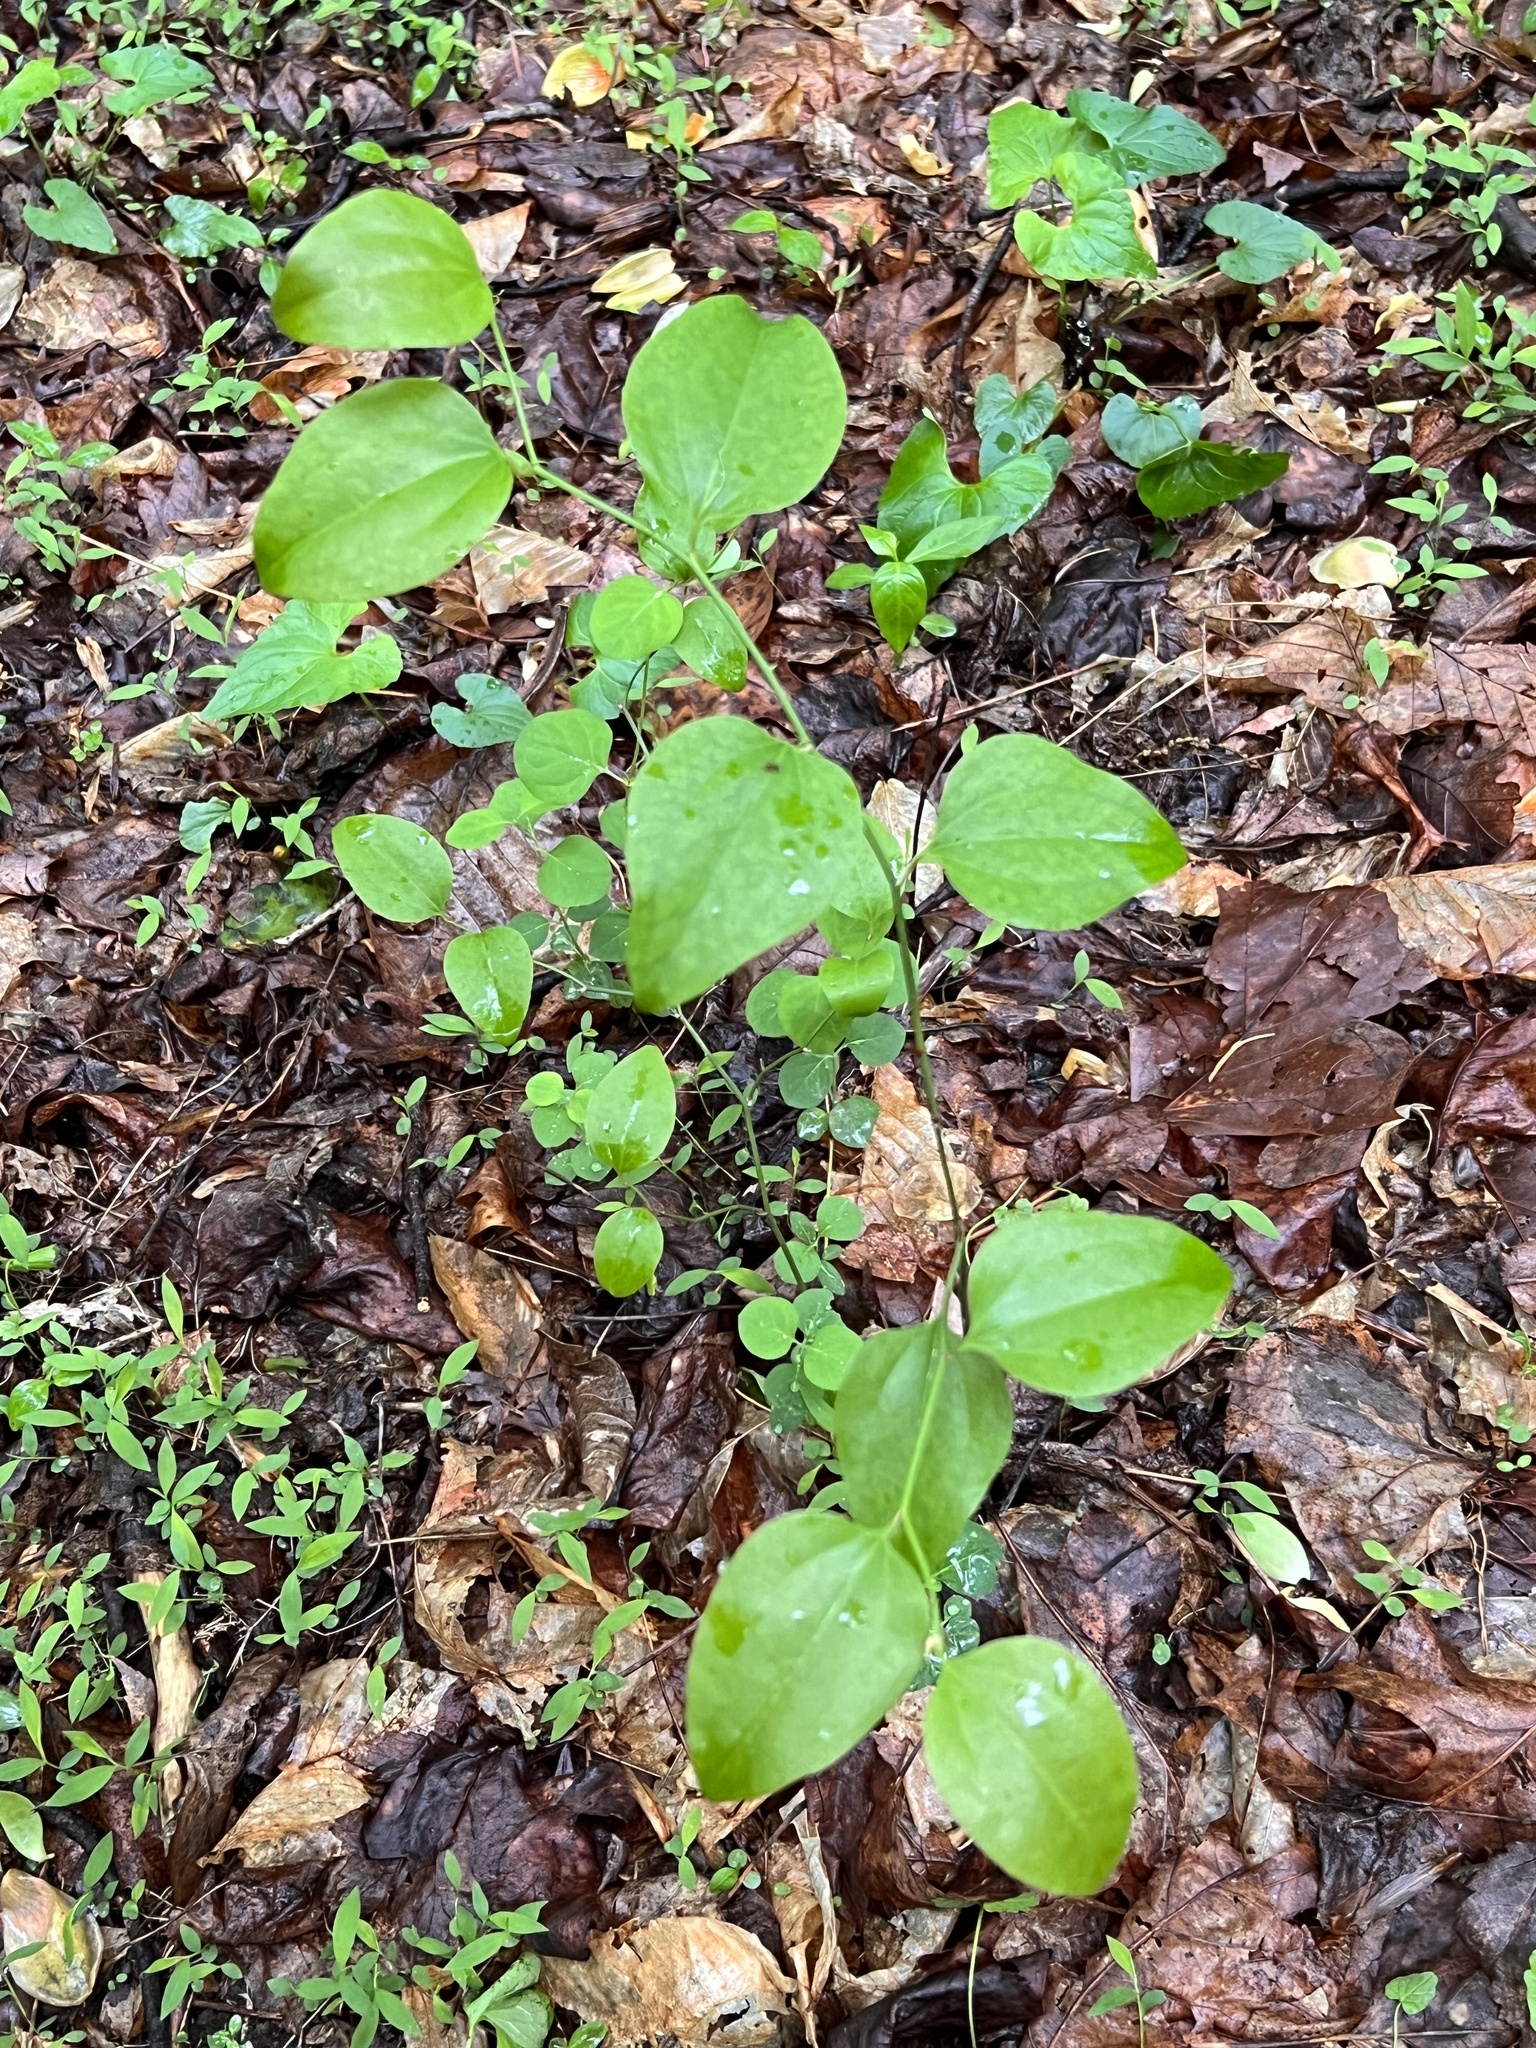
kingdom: Plantae
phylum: Tracheophyta
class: Liliopsida
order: Liliales
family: Smilacaceae
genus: Smilax
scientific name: Smilax rotundifolia
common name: Bullbriar
